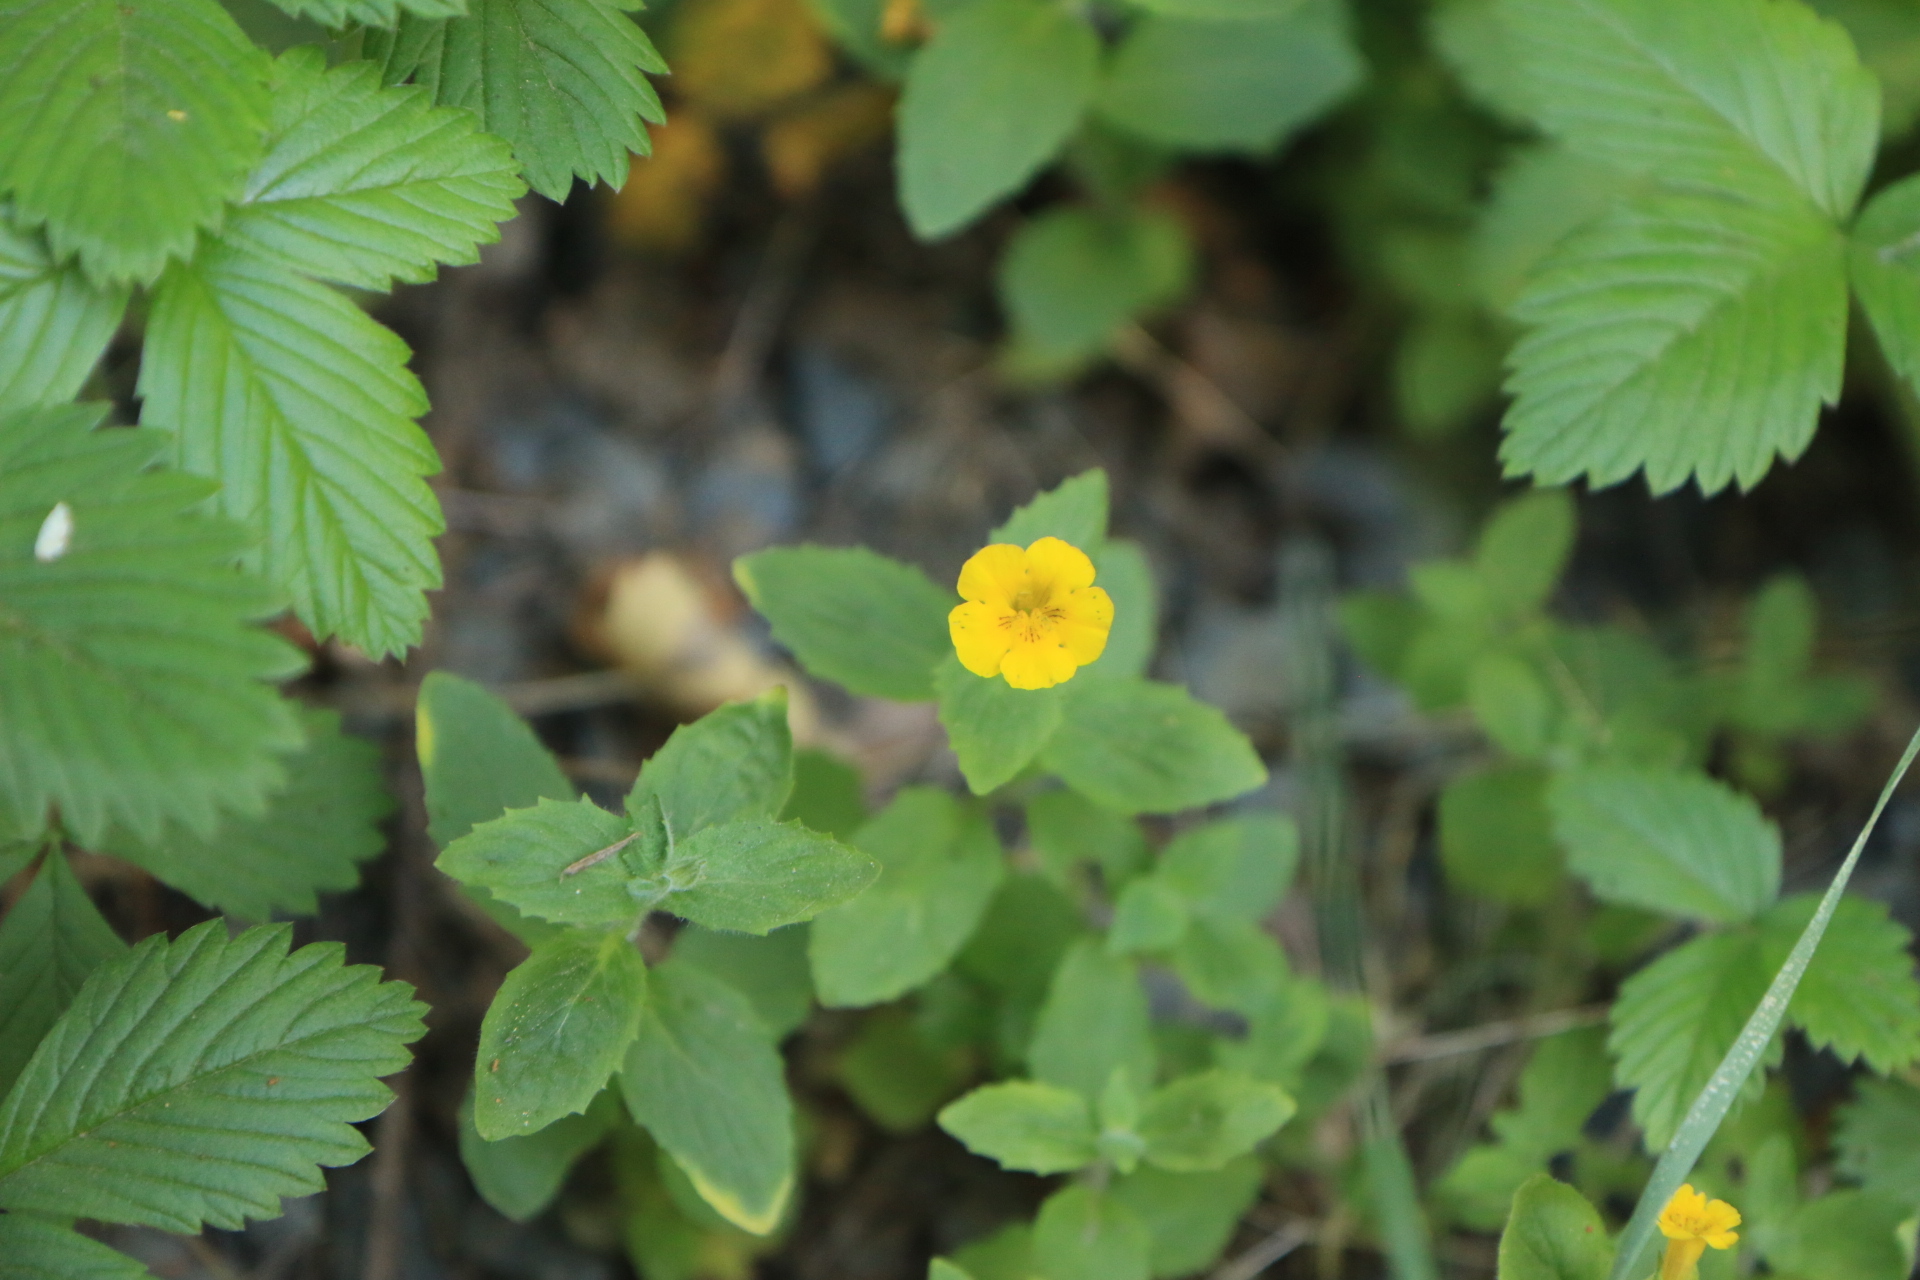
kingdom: Plantae
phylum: Tracheophyta
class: Magnoliopsida
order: Lamiales
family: Phrymaceae
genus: Erythranthe
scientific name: Erythranthe moschata
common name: Muskflower
